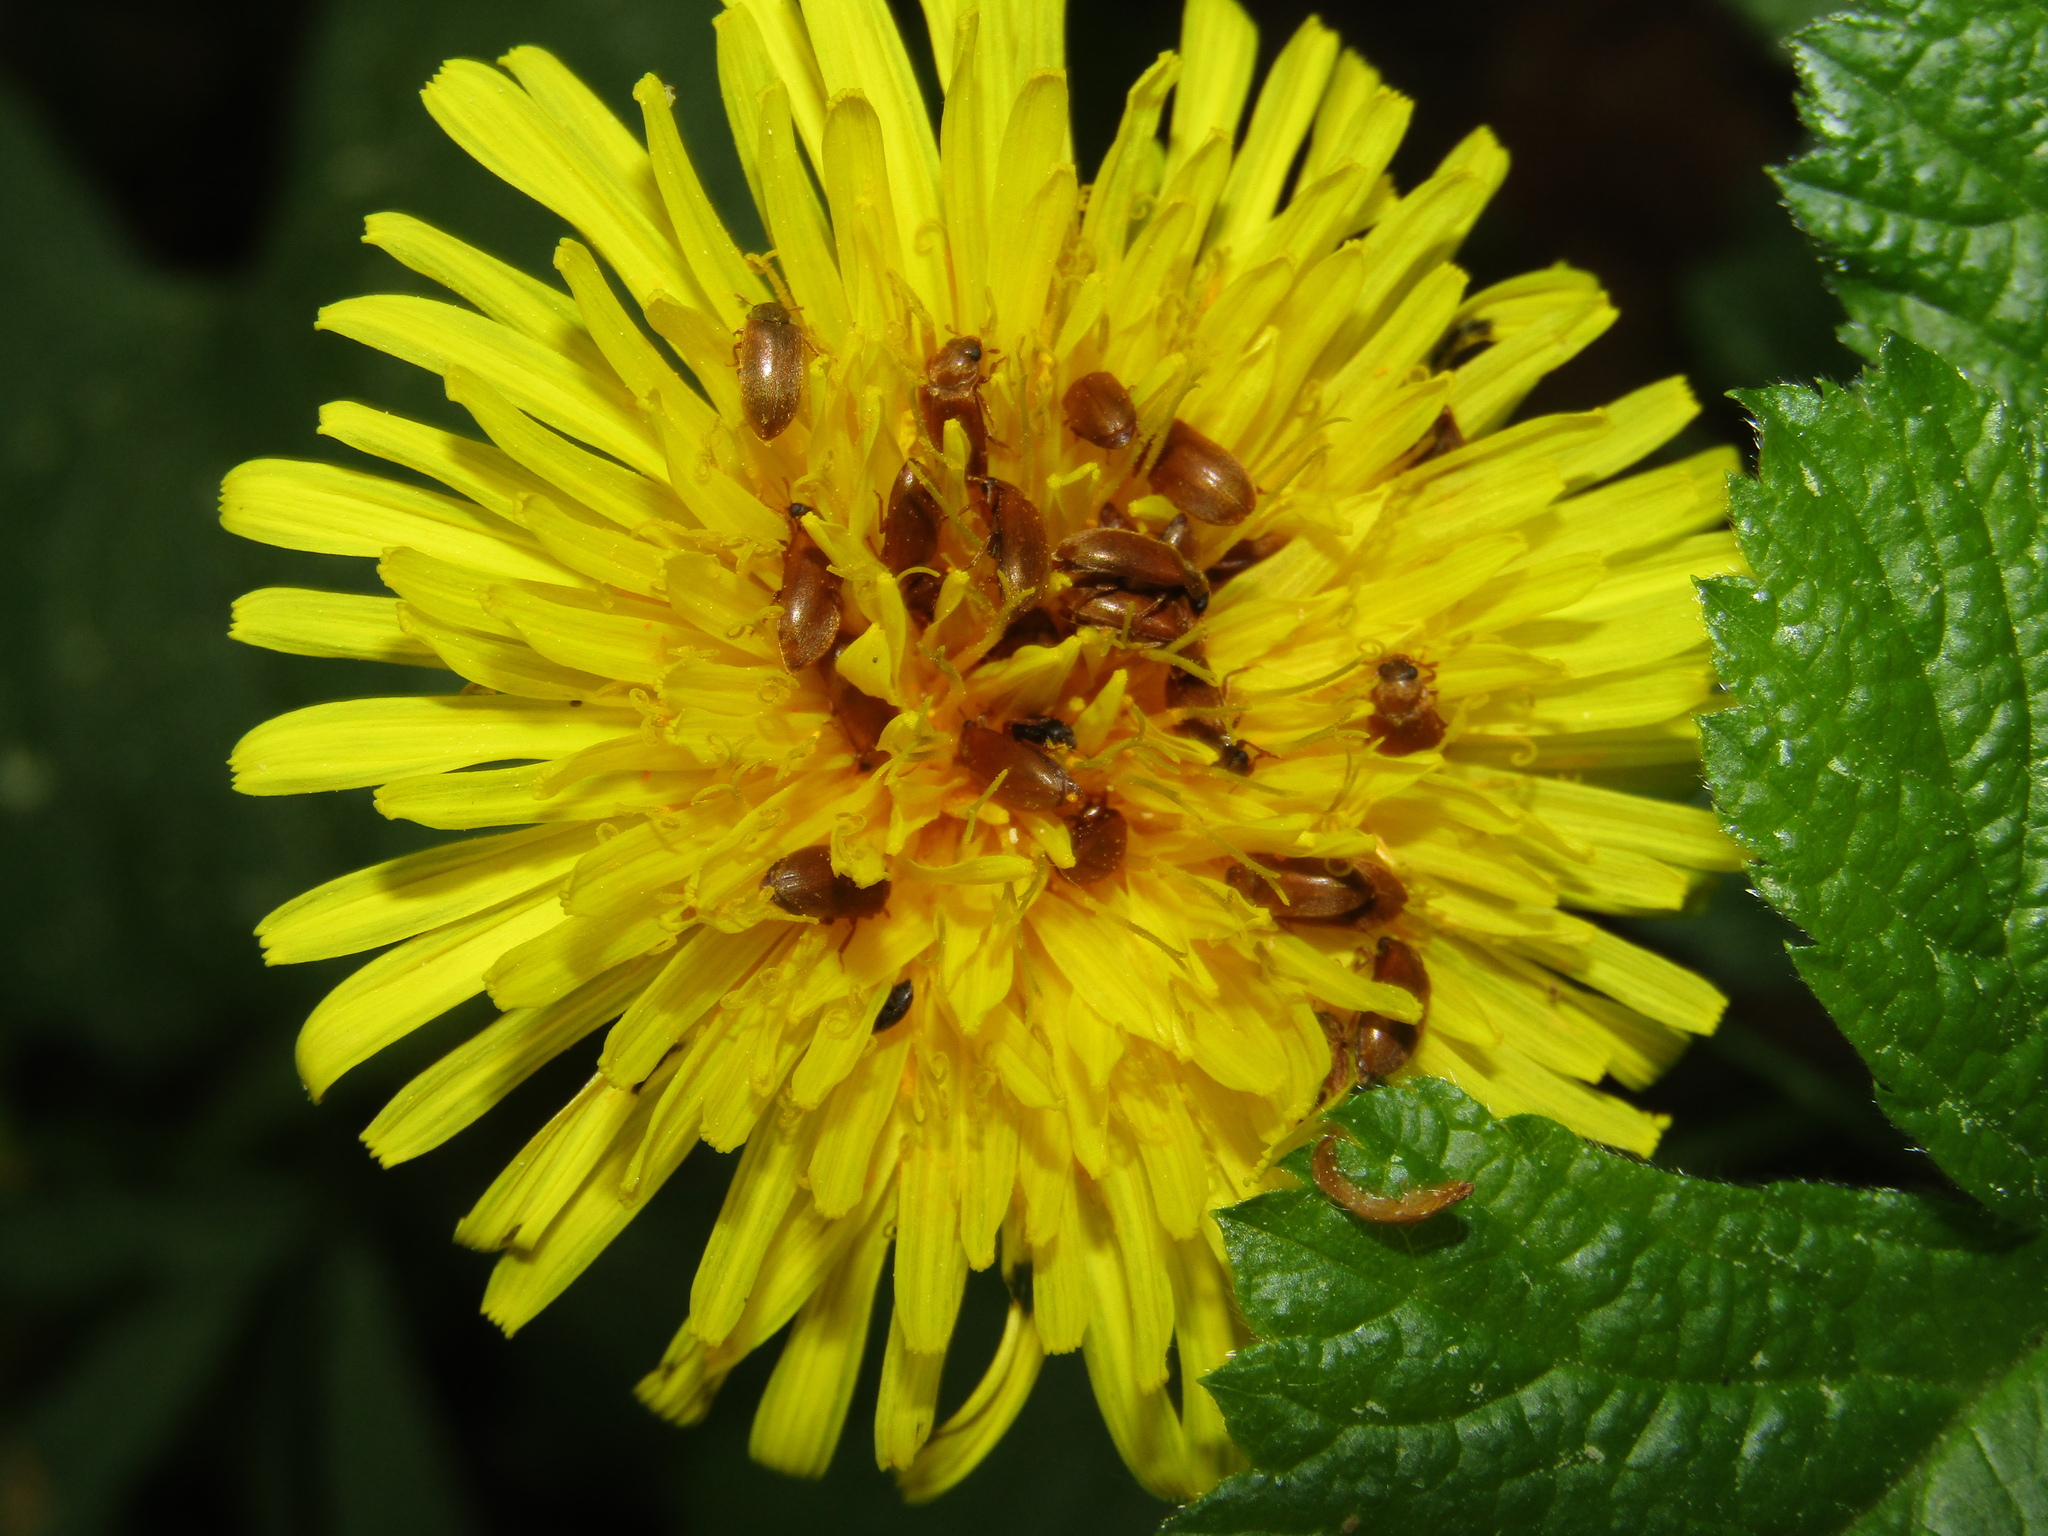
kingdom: Plantae
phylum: Tracheophyta
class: Magnoliopsida
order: Asterales
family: Asteraceae
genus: Taraxacum
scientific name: Taraxacum officinale
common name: Common dandelion
